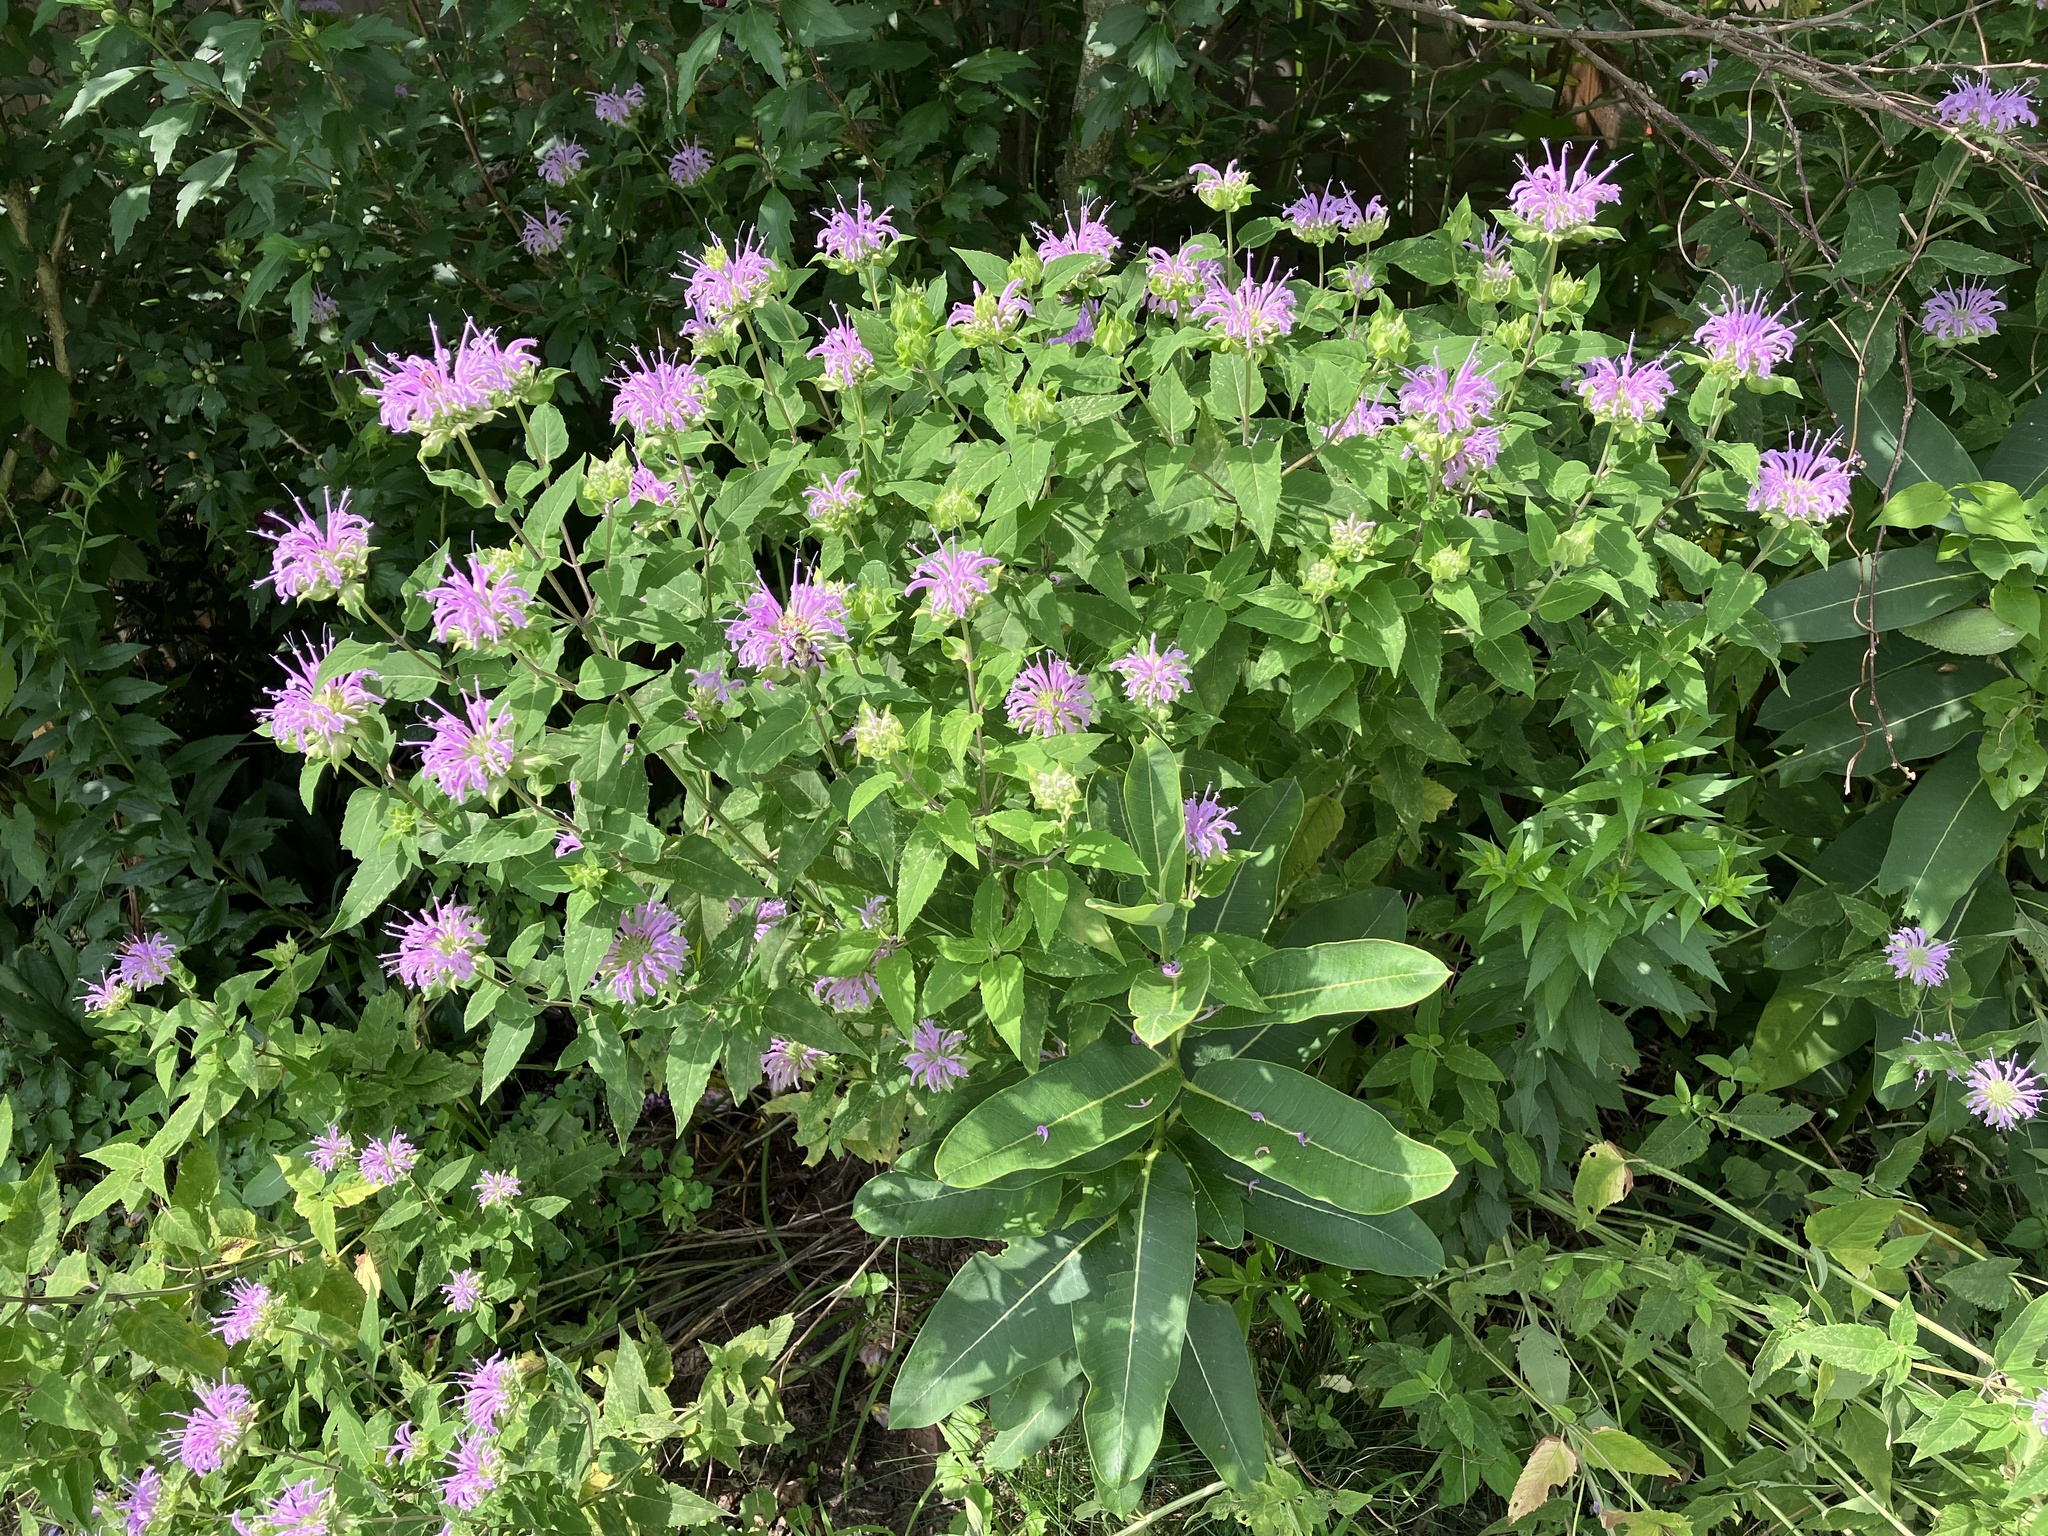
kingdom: Plantae
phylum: Tracheophyta
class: Magnoliopsida
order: Lamiales
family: Lamiaceae
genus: Monarda
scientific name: Monarda fistulosa
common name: Purple beebalm
